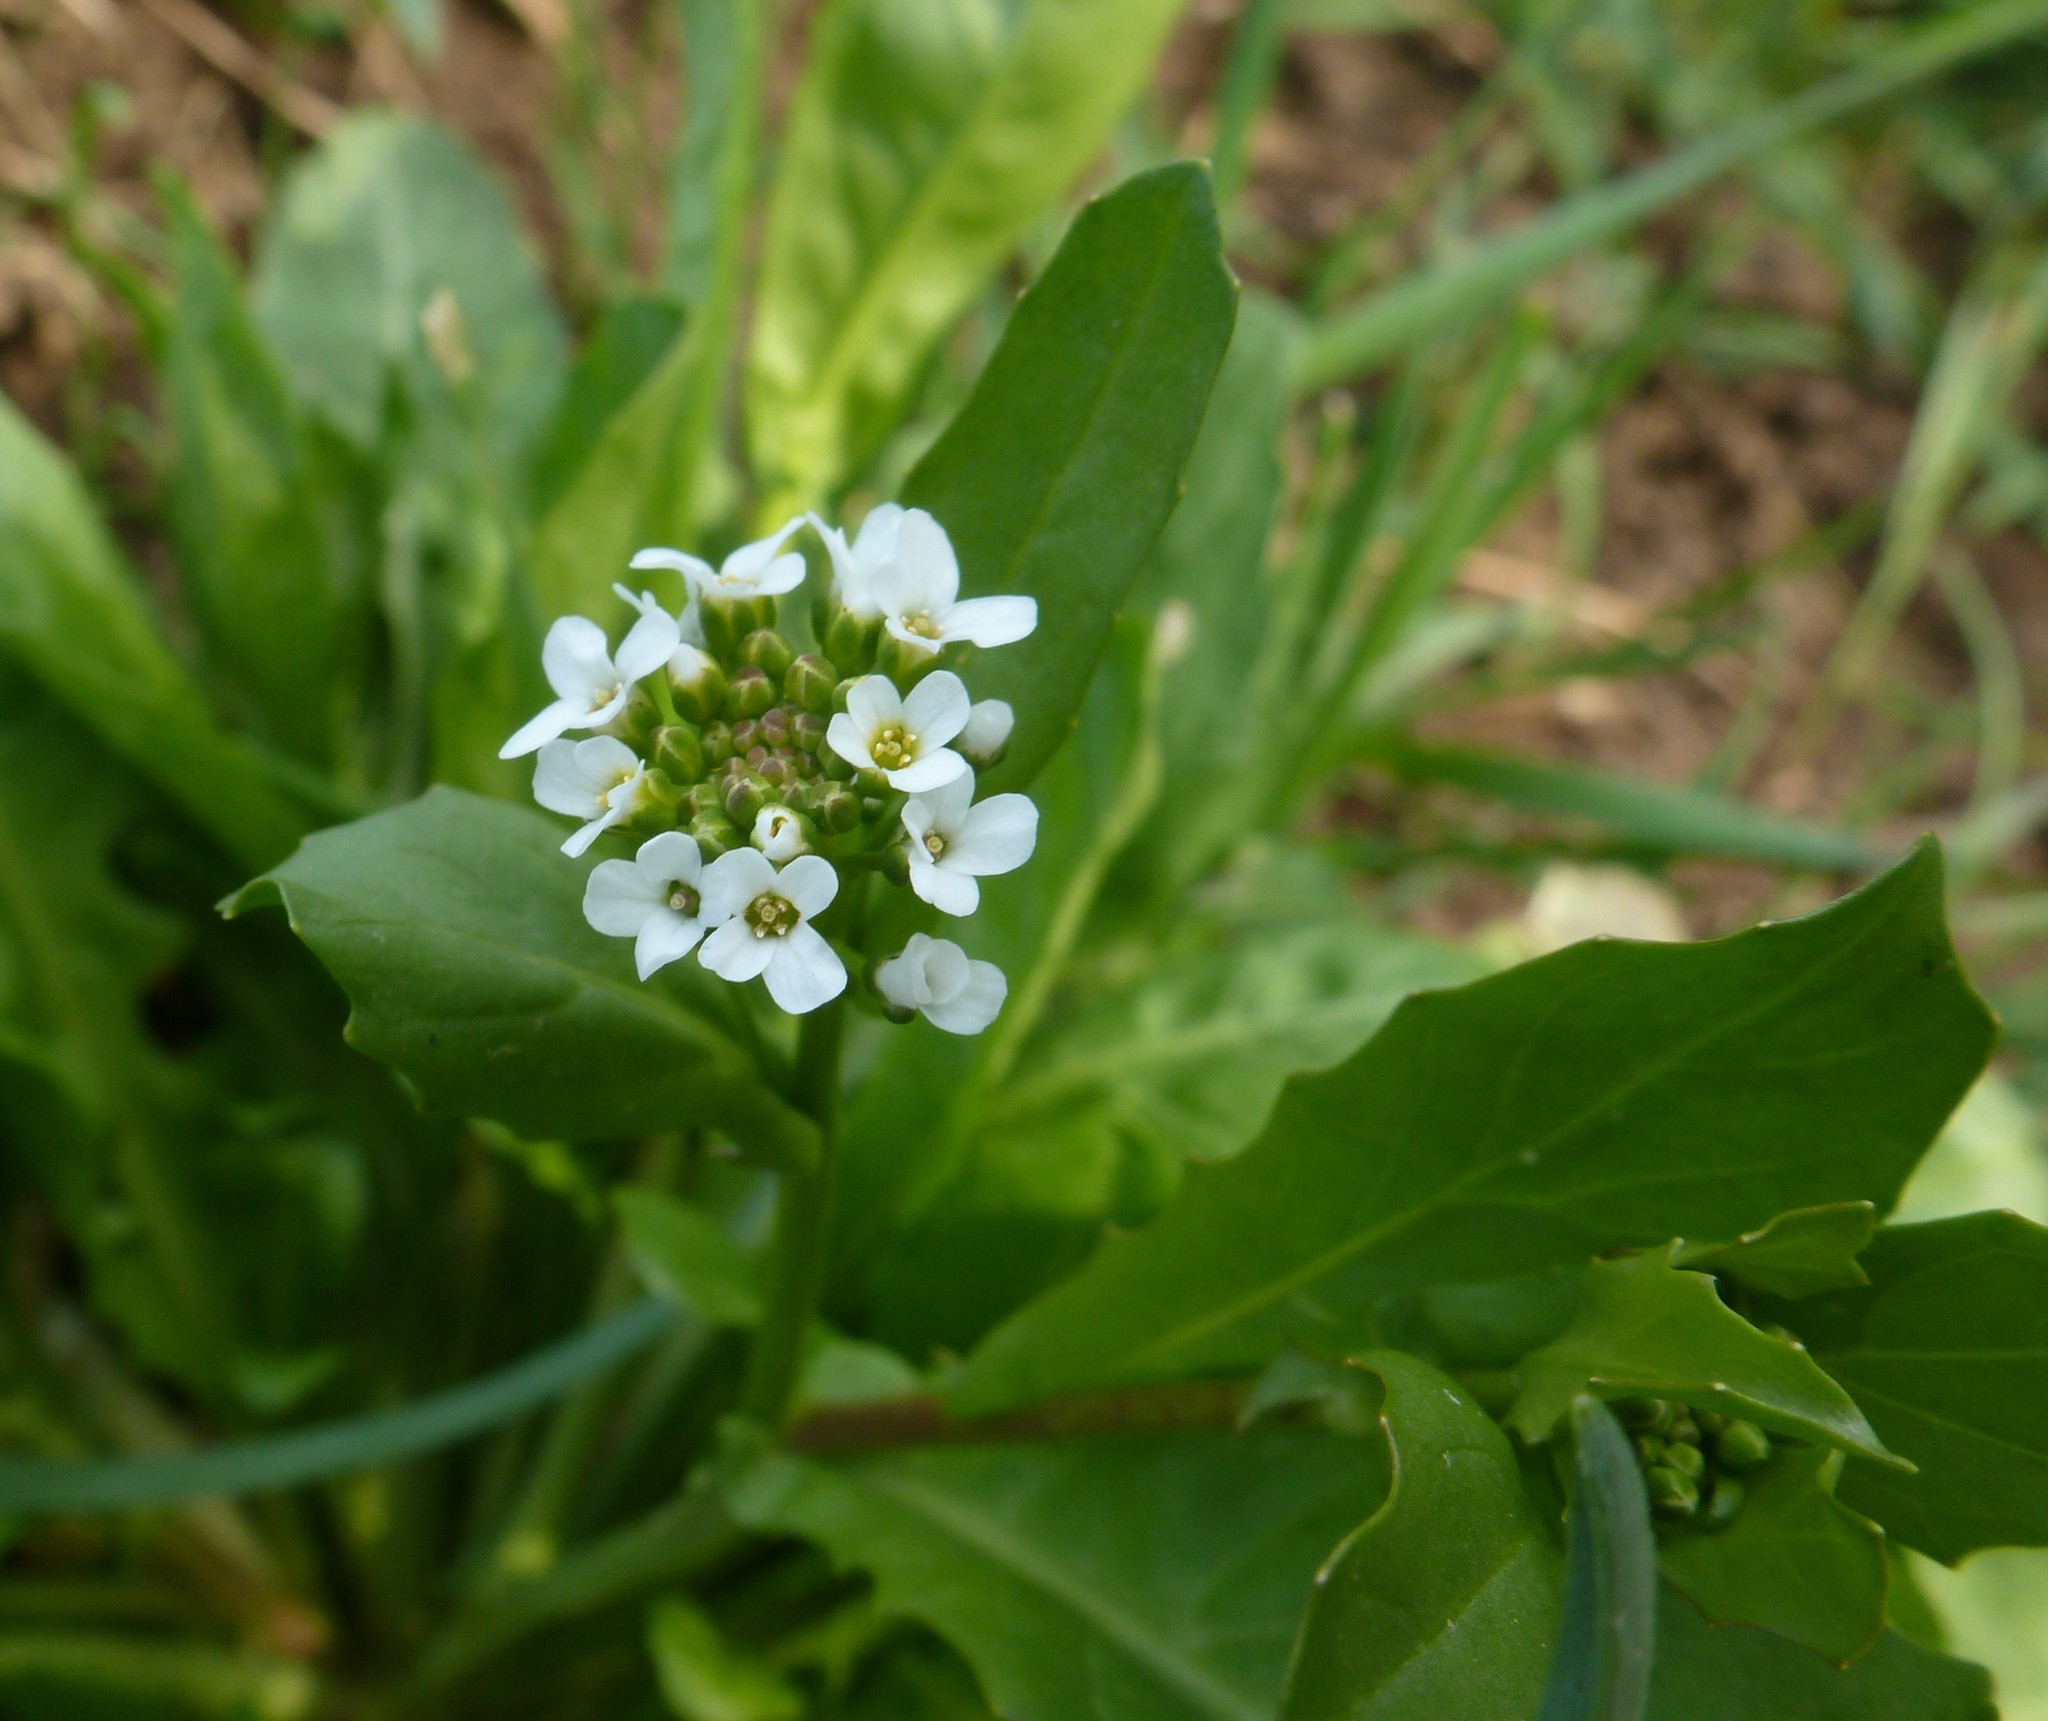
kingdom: Plantae
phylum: Tracheophyta
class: Magnoliopsida
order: Brassicales
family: Brassicaceae
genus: Calepina
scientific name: Calepina irregularis
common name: White ballmustard
